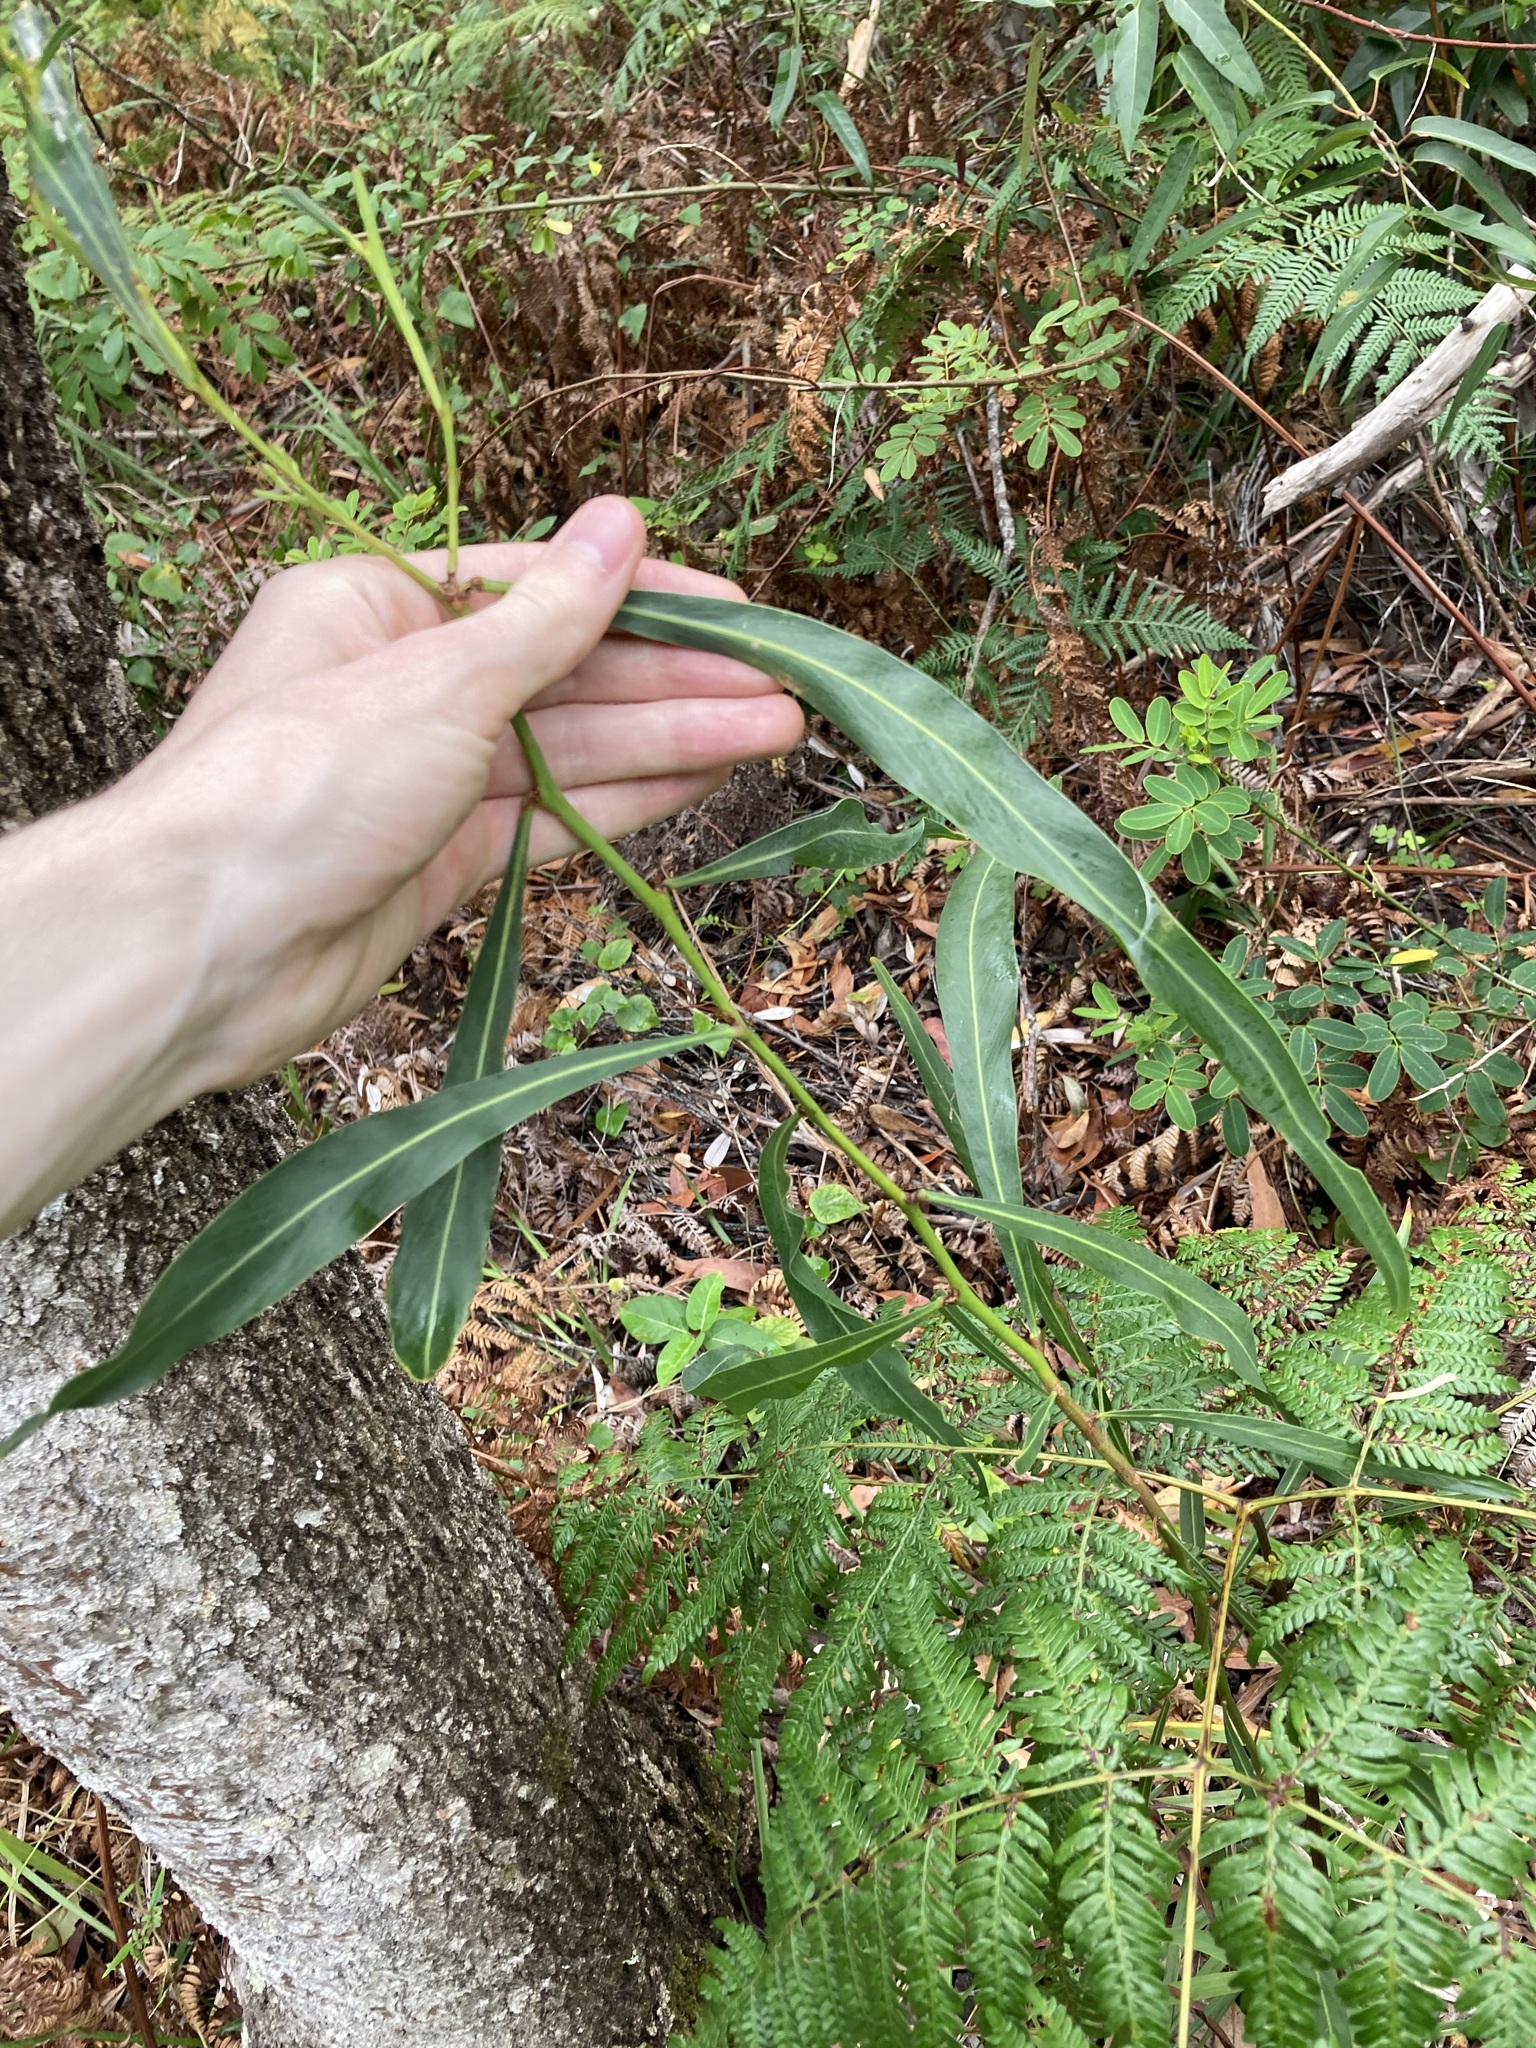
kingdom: Plantae
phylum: Tracheophyta
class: Magnoliopsida
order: Fabales
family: Fabaceae
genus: Acacia
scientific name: Acacia saligna
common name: Orange wattle
